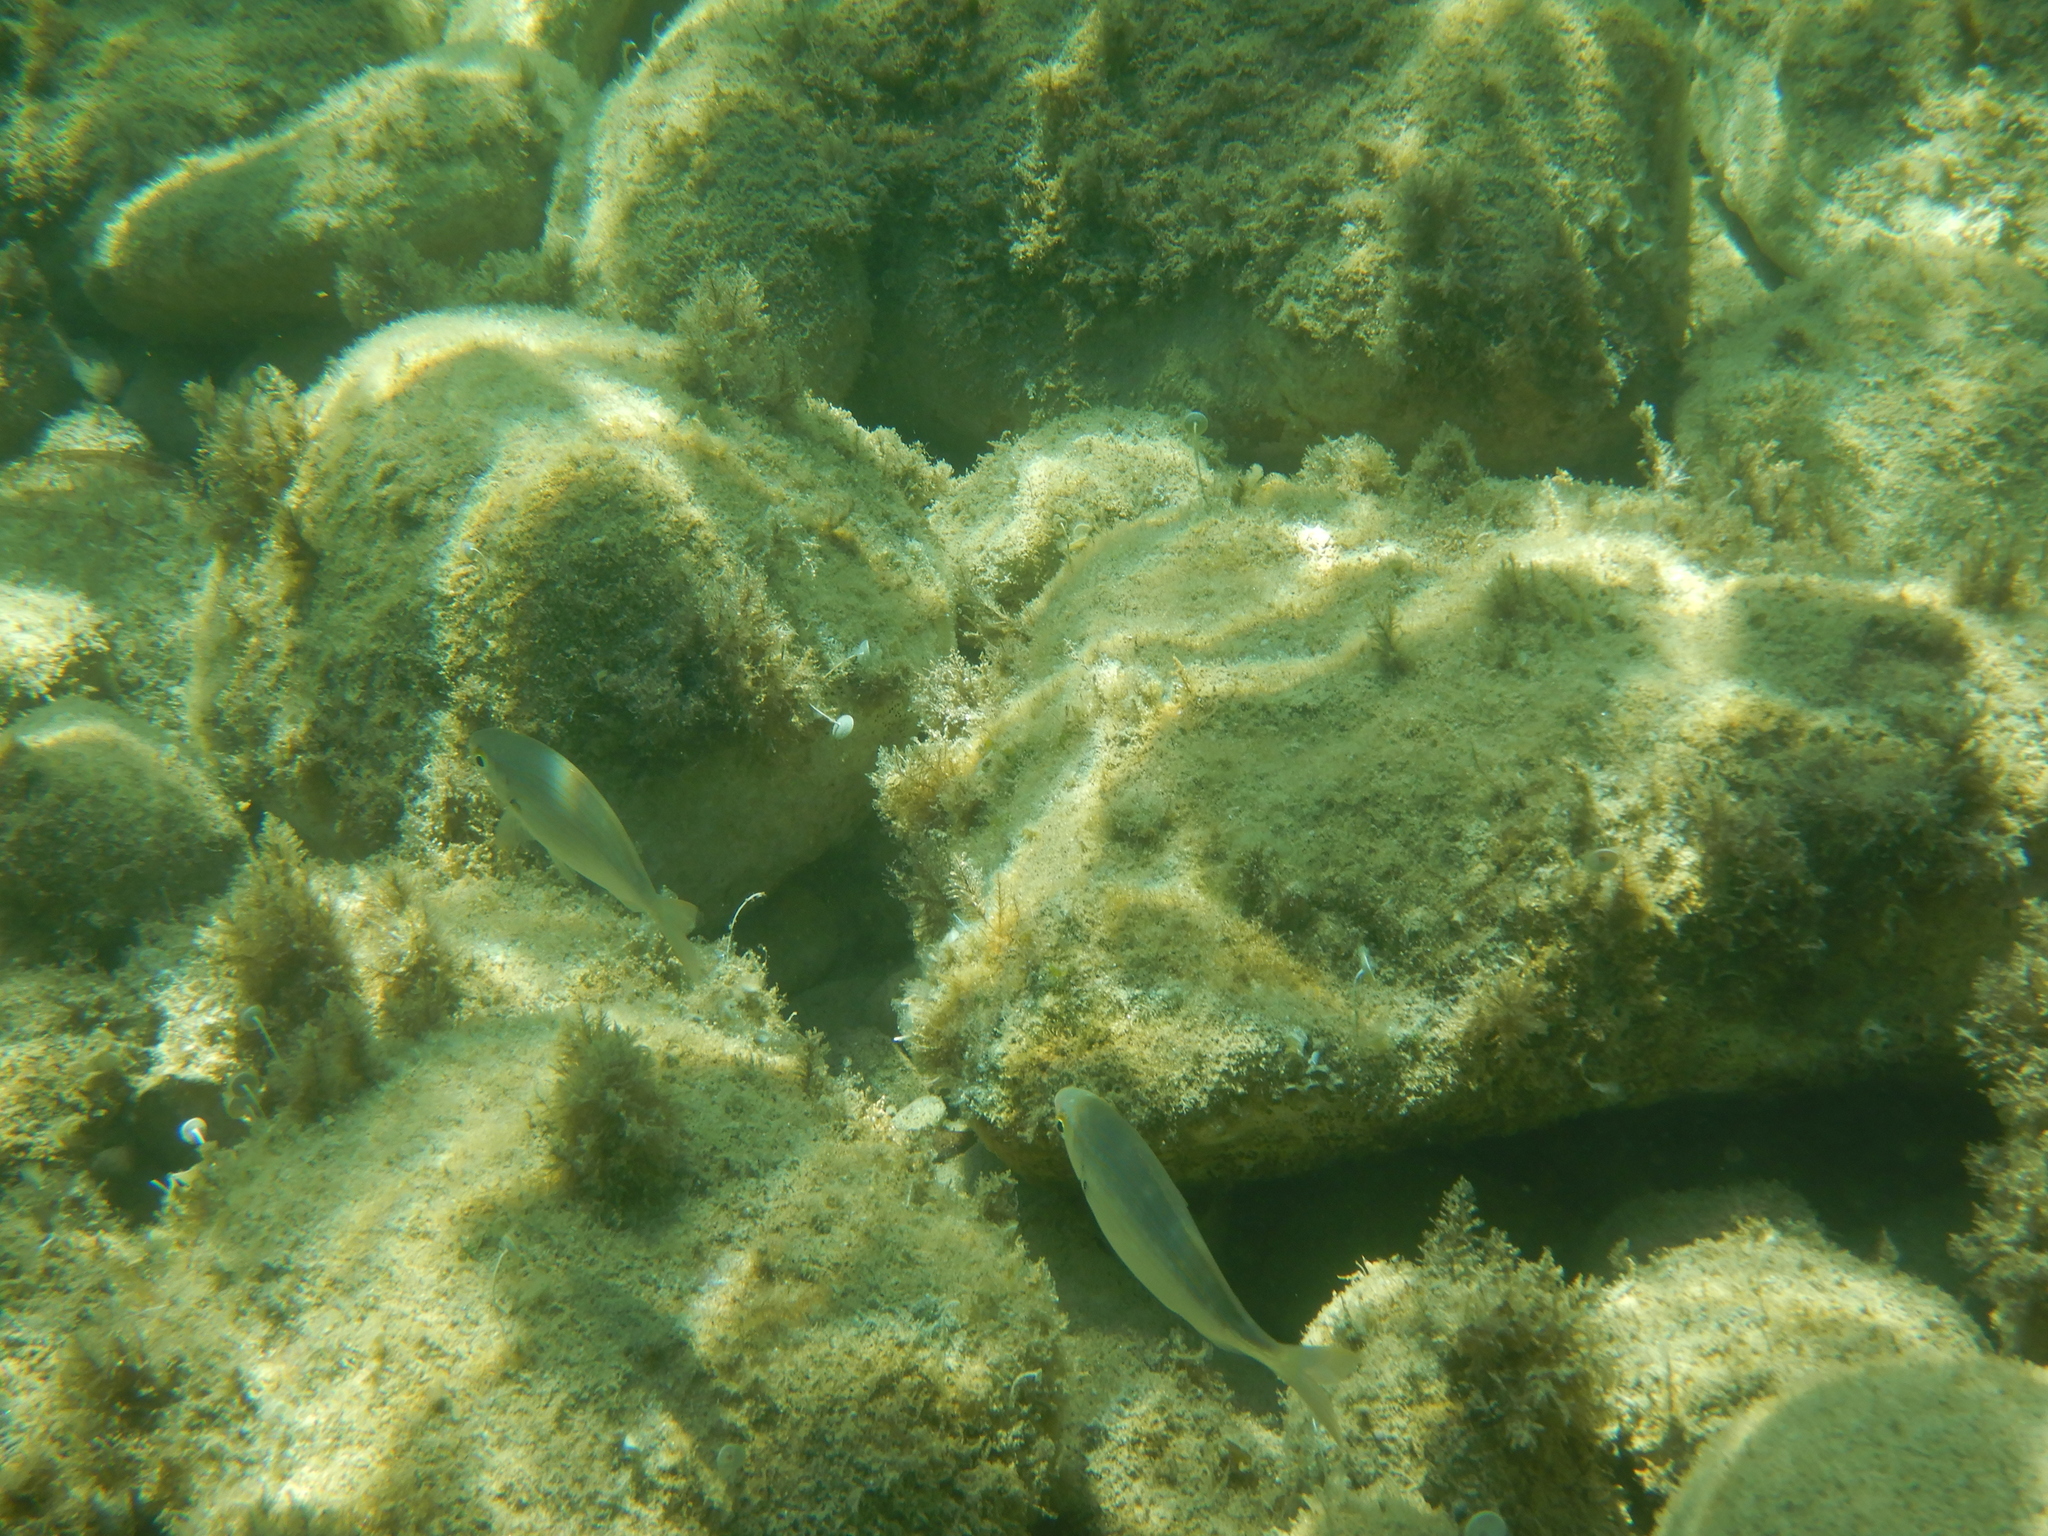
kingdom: Animalia
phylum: Chordata
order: Perciformes
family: Sparidae
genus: Sarpa
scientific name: Sarpa salpa
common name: Salema
